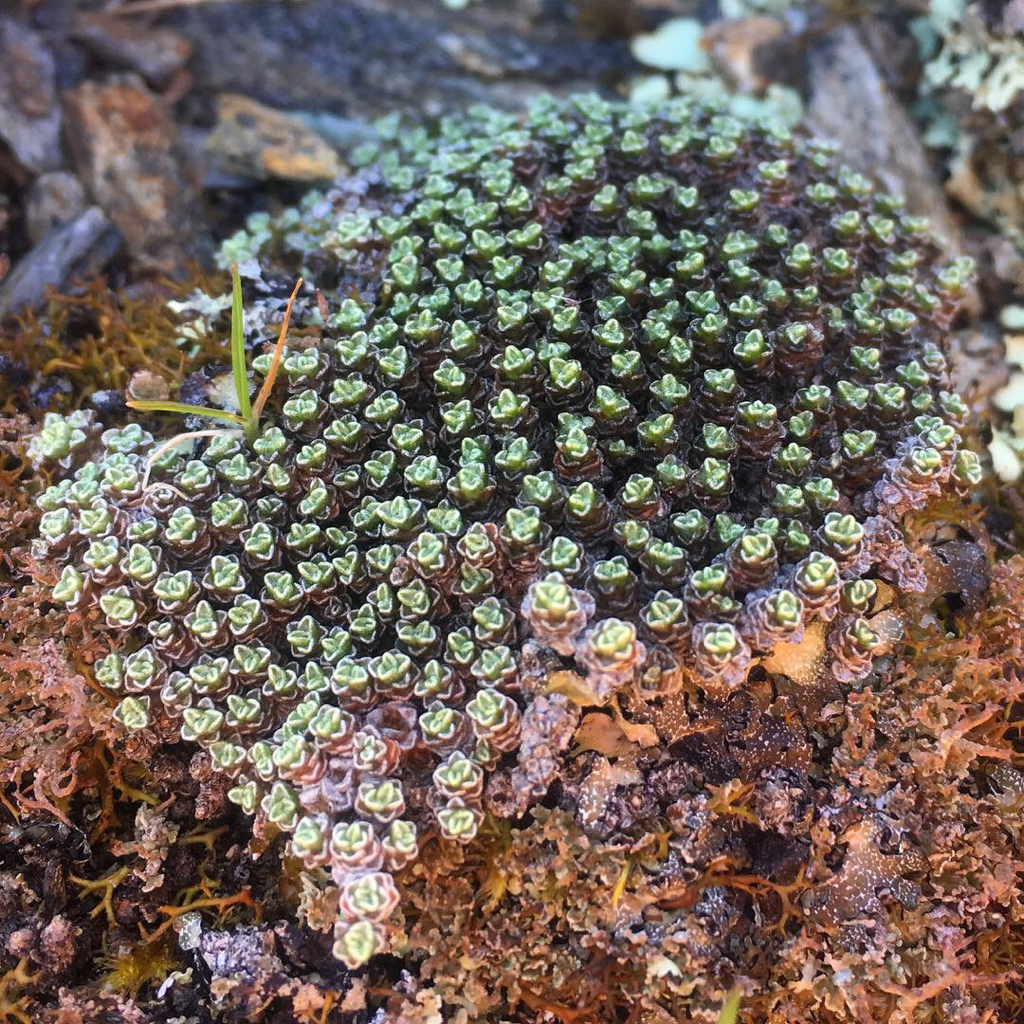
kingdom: Plantae
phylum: Tracheophyta
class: Magnoliopsida
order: Asterales
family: Asteraceae
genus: Raoulia
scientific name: Raoulia australis
